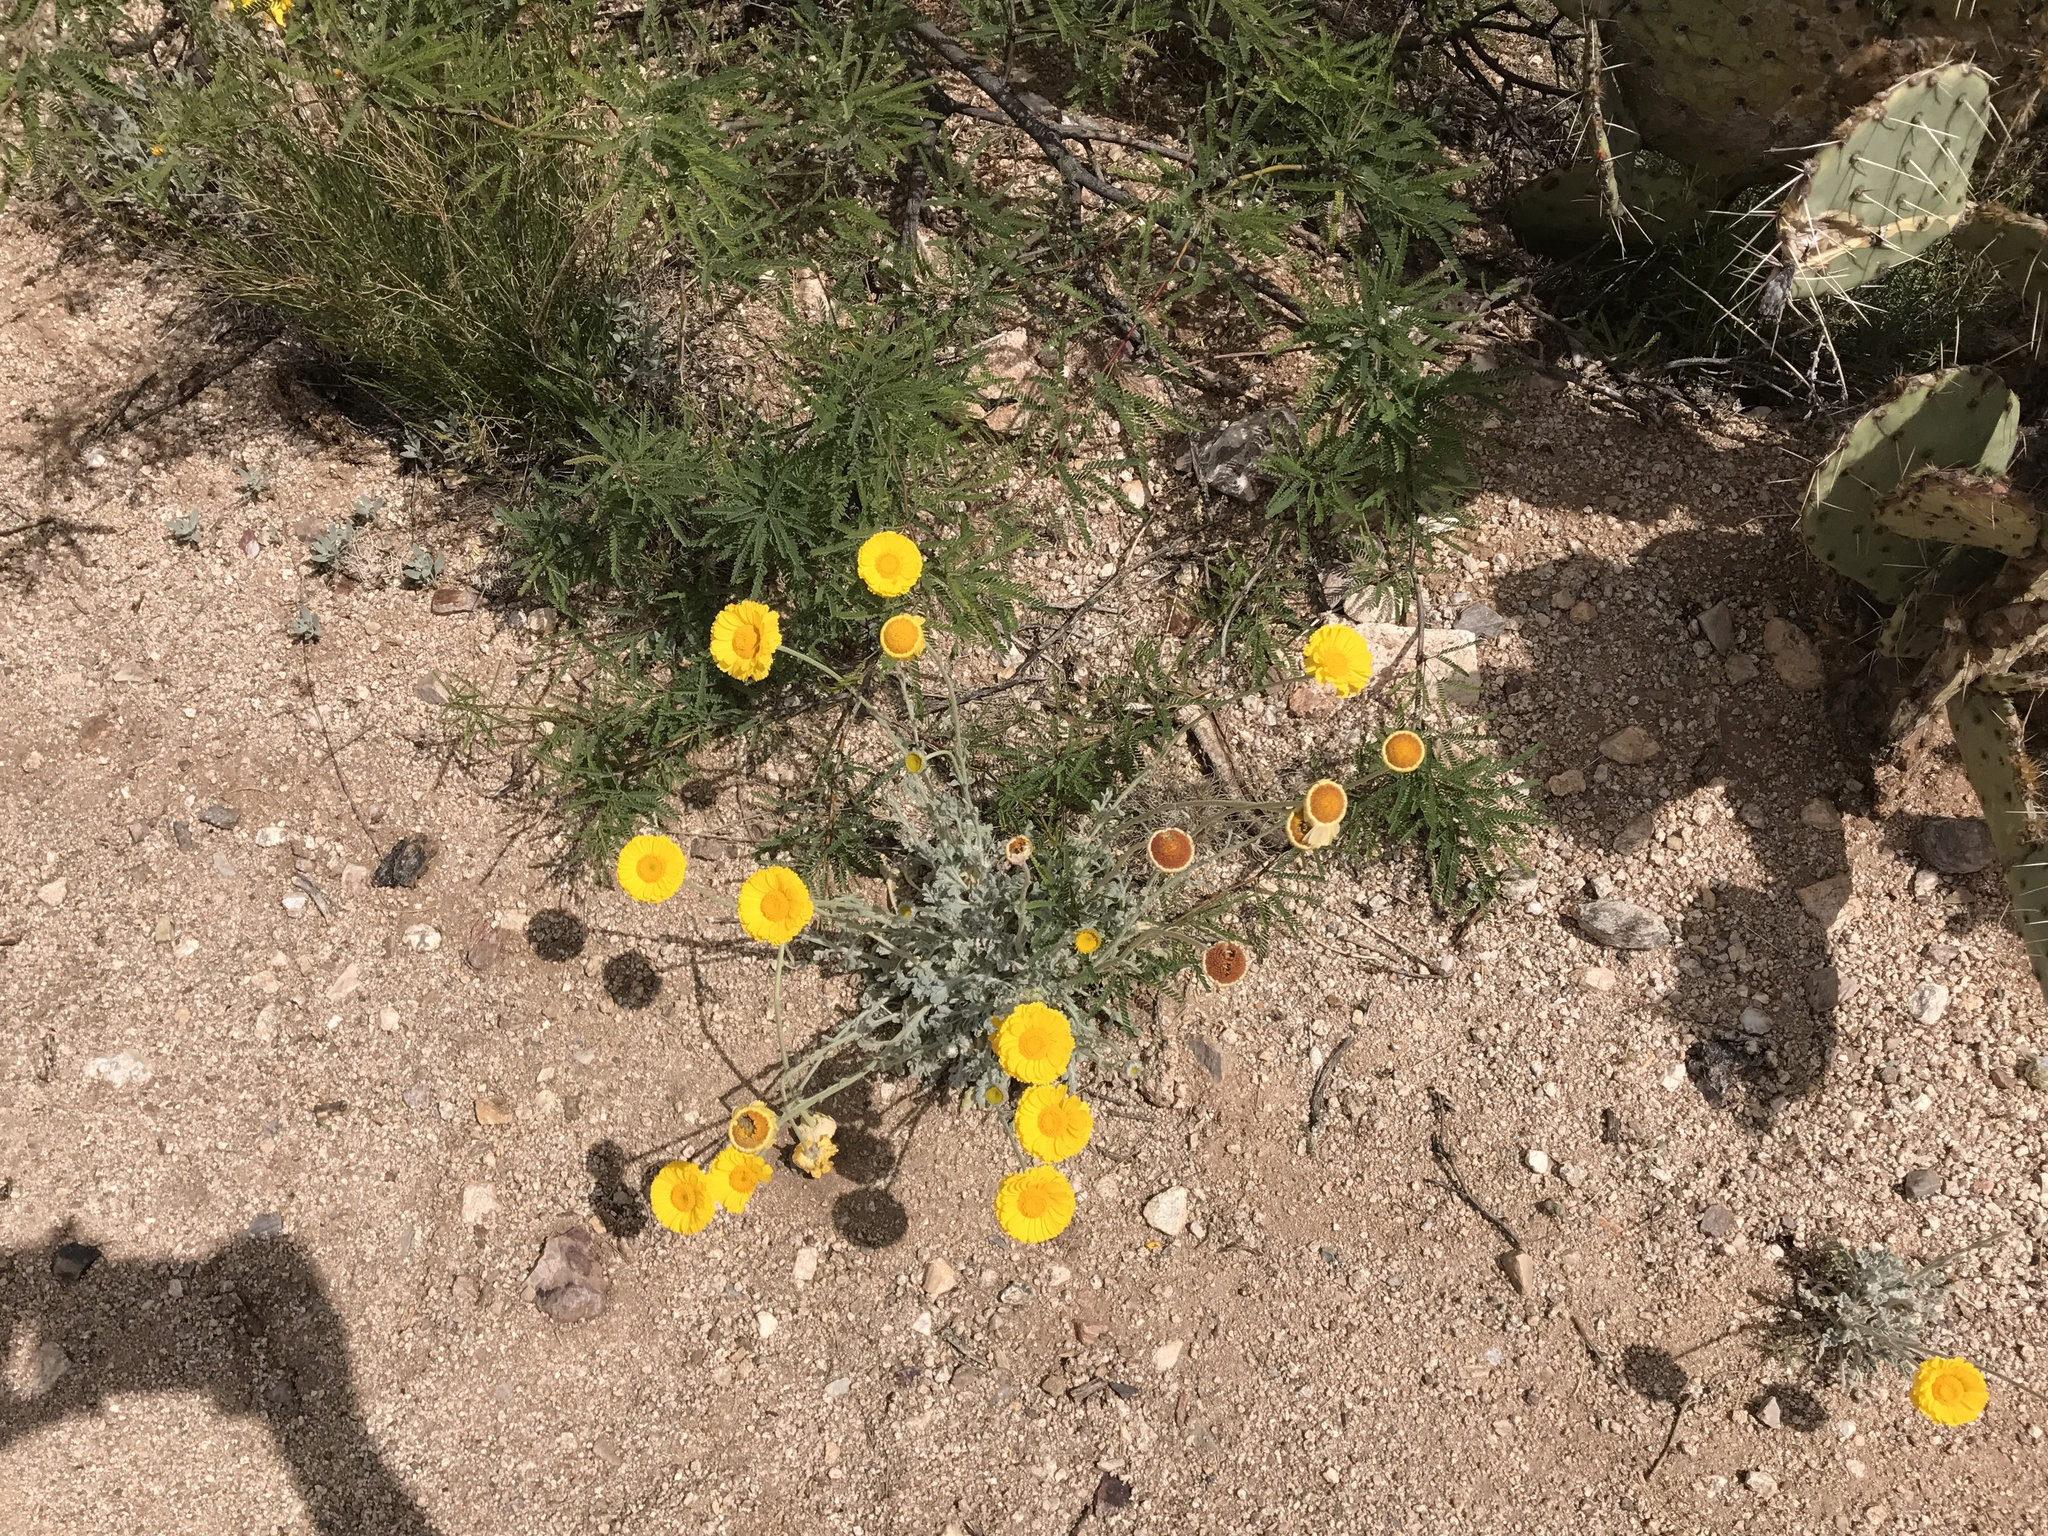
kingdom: Plantae
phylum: Tracheophyta
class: Magnoliopsida
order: Asterales
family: Asteraceae
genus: Baileya
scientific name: Baileya multiradiata
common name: Desert-marigold
